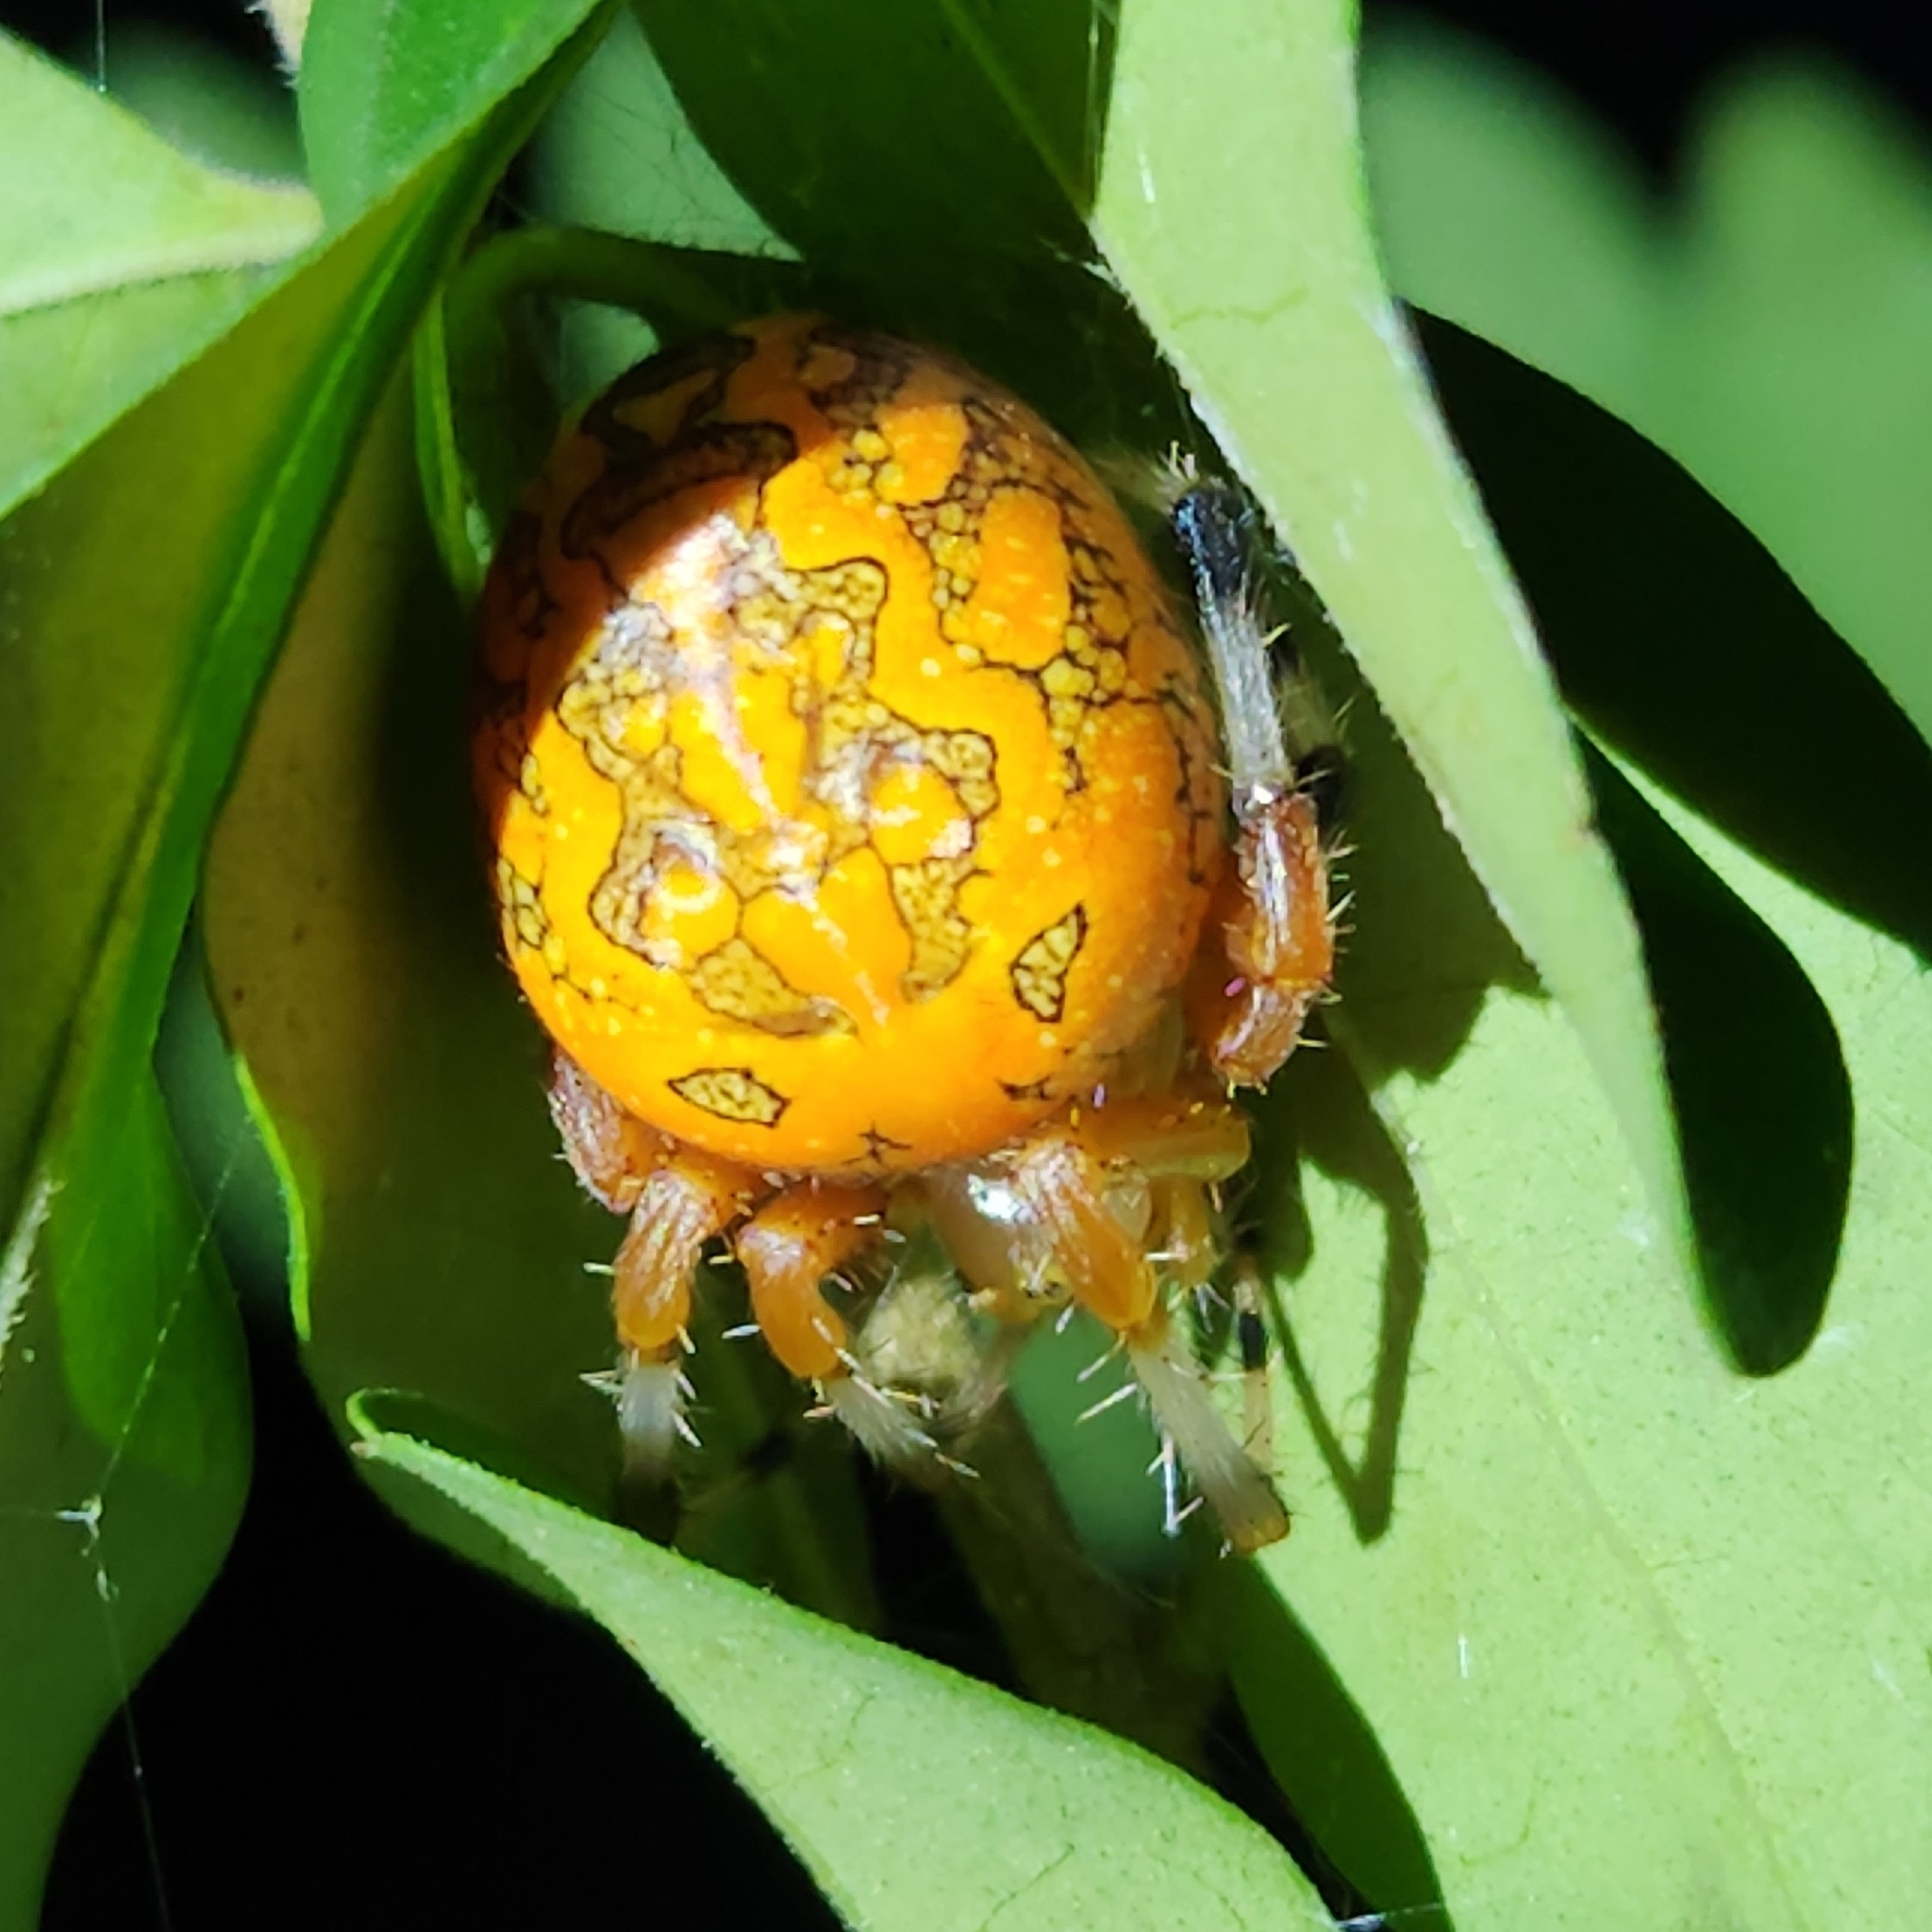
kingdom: Animalia
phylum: Arthropoda
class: Arachnida
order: Araneae
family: Araneidae
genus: Araneus
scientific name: Araneus marmoreus
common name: Marbled orbweaver
